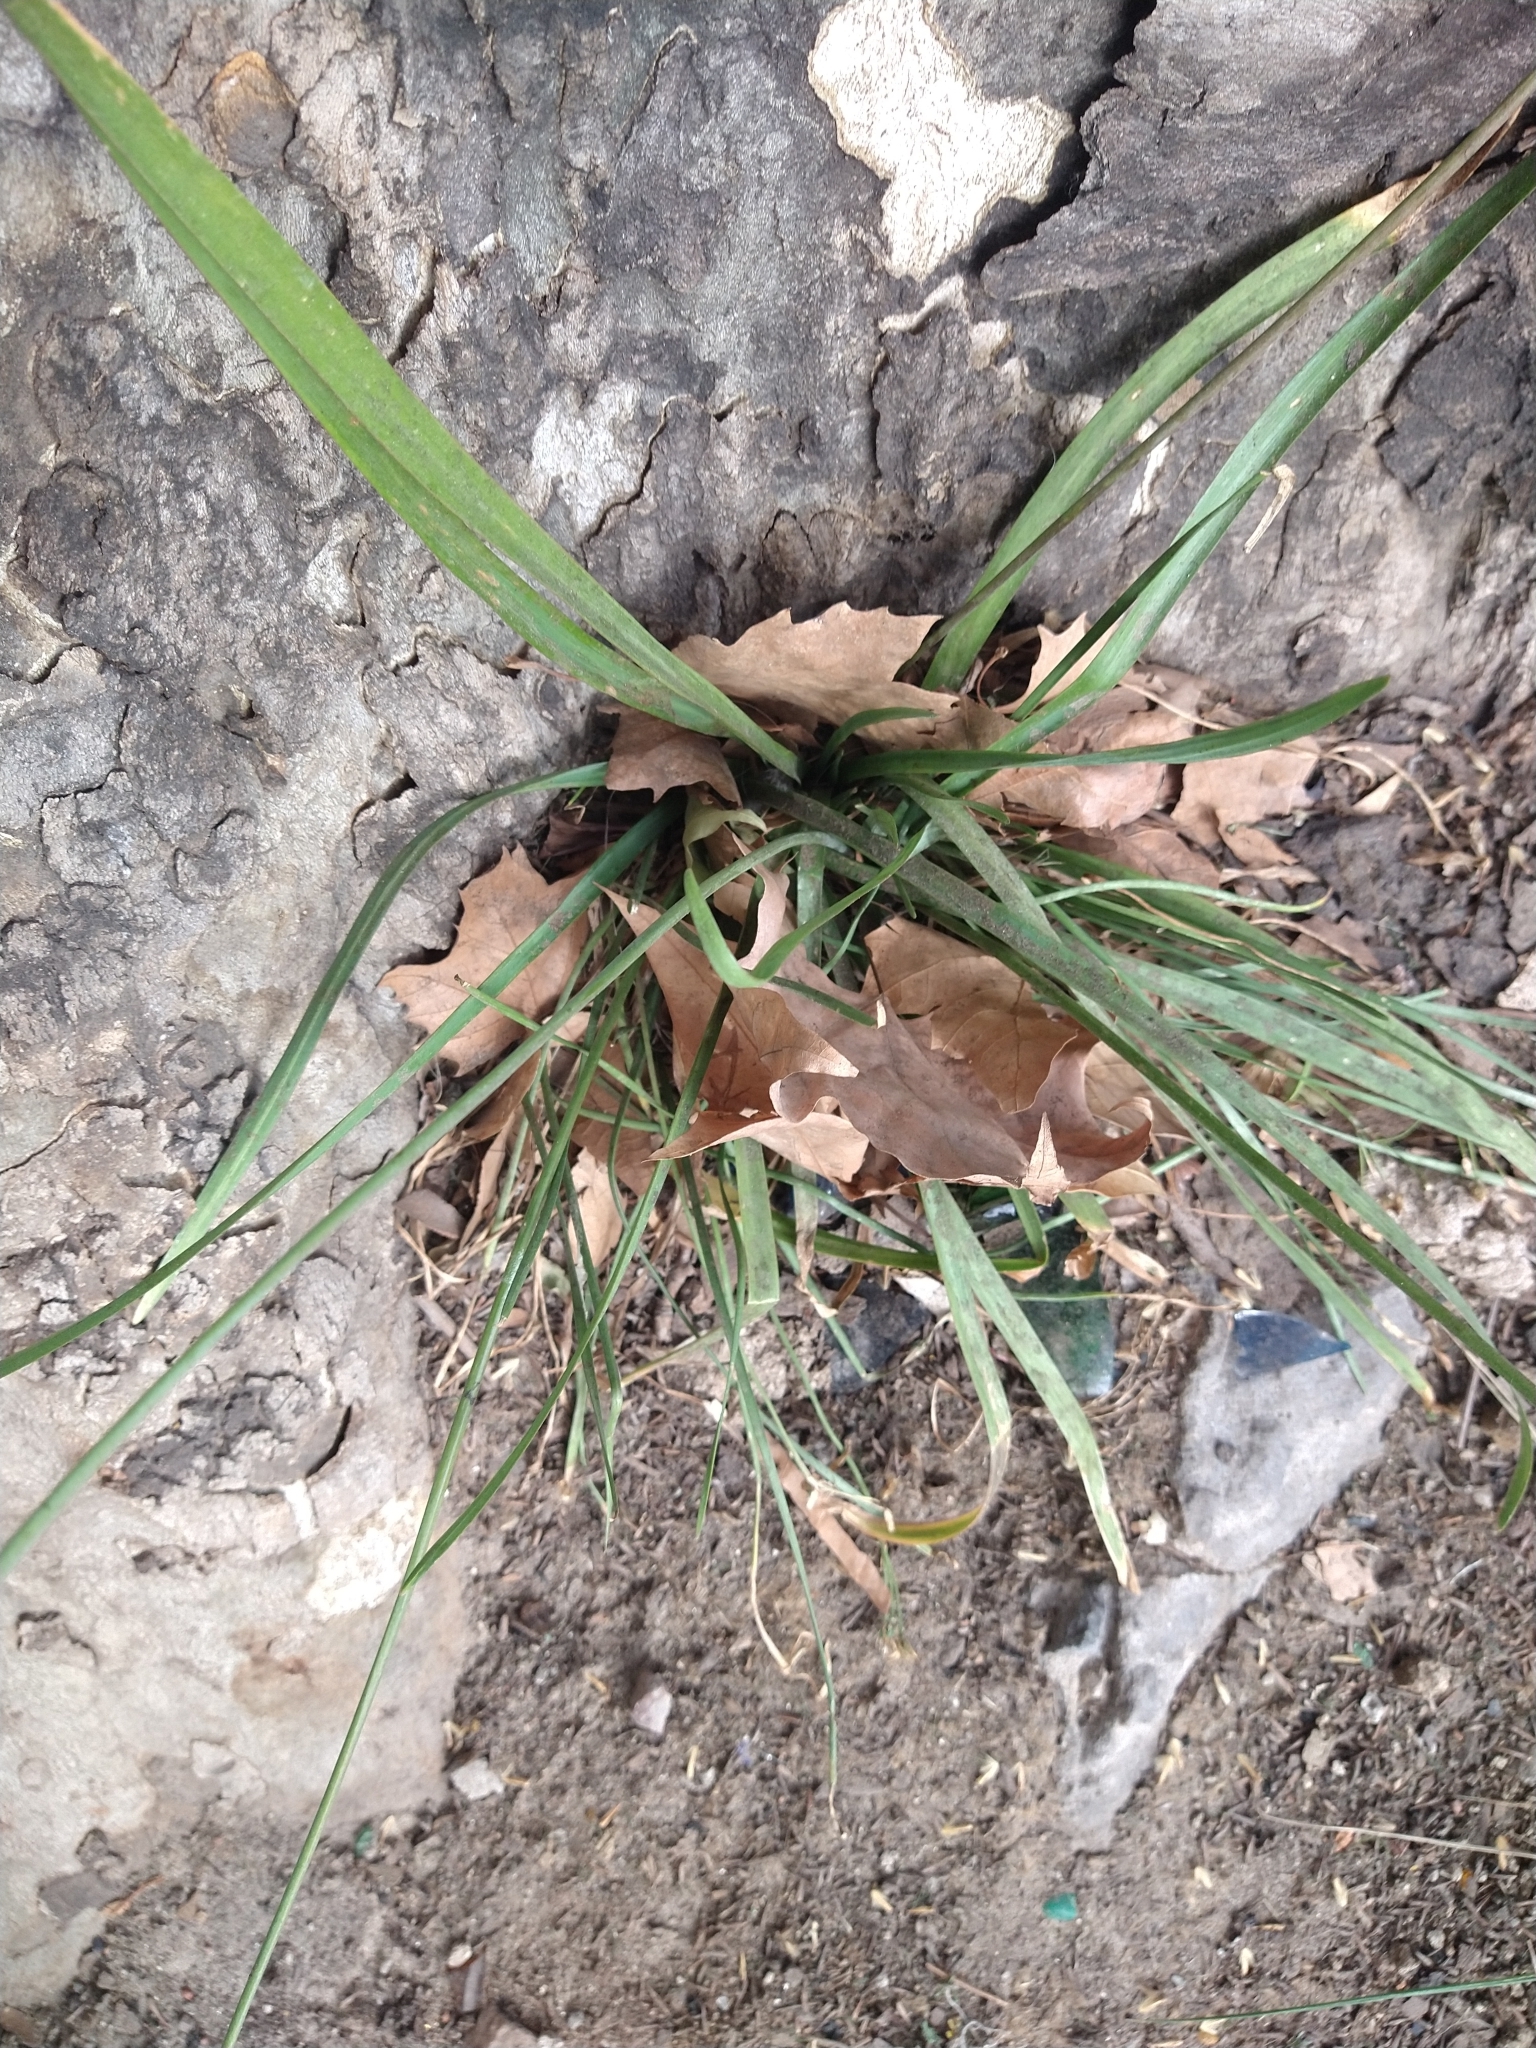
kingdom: Plantae
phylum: Tracheophyta
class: Liliopsida
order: Asparagales
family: Amaryllidaceae
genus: Nothoscordum
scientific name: Nothoscordum gracile
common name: Slender false garlic
